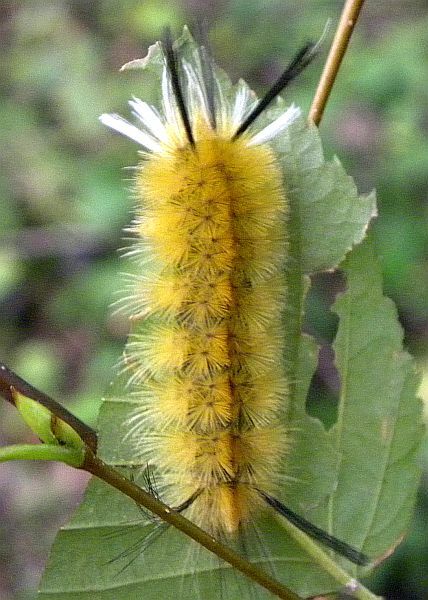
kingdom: Animalia
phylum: Arthropoda
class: Insecta
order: Lepidoptera
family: Erebidae
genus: Halysidota
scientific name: Halysidota tessellaris
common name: Banded tussock moth
